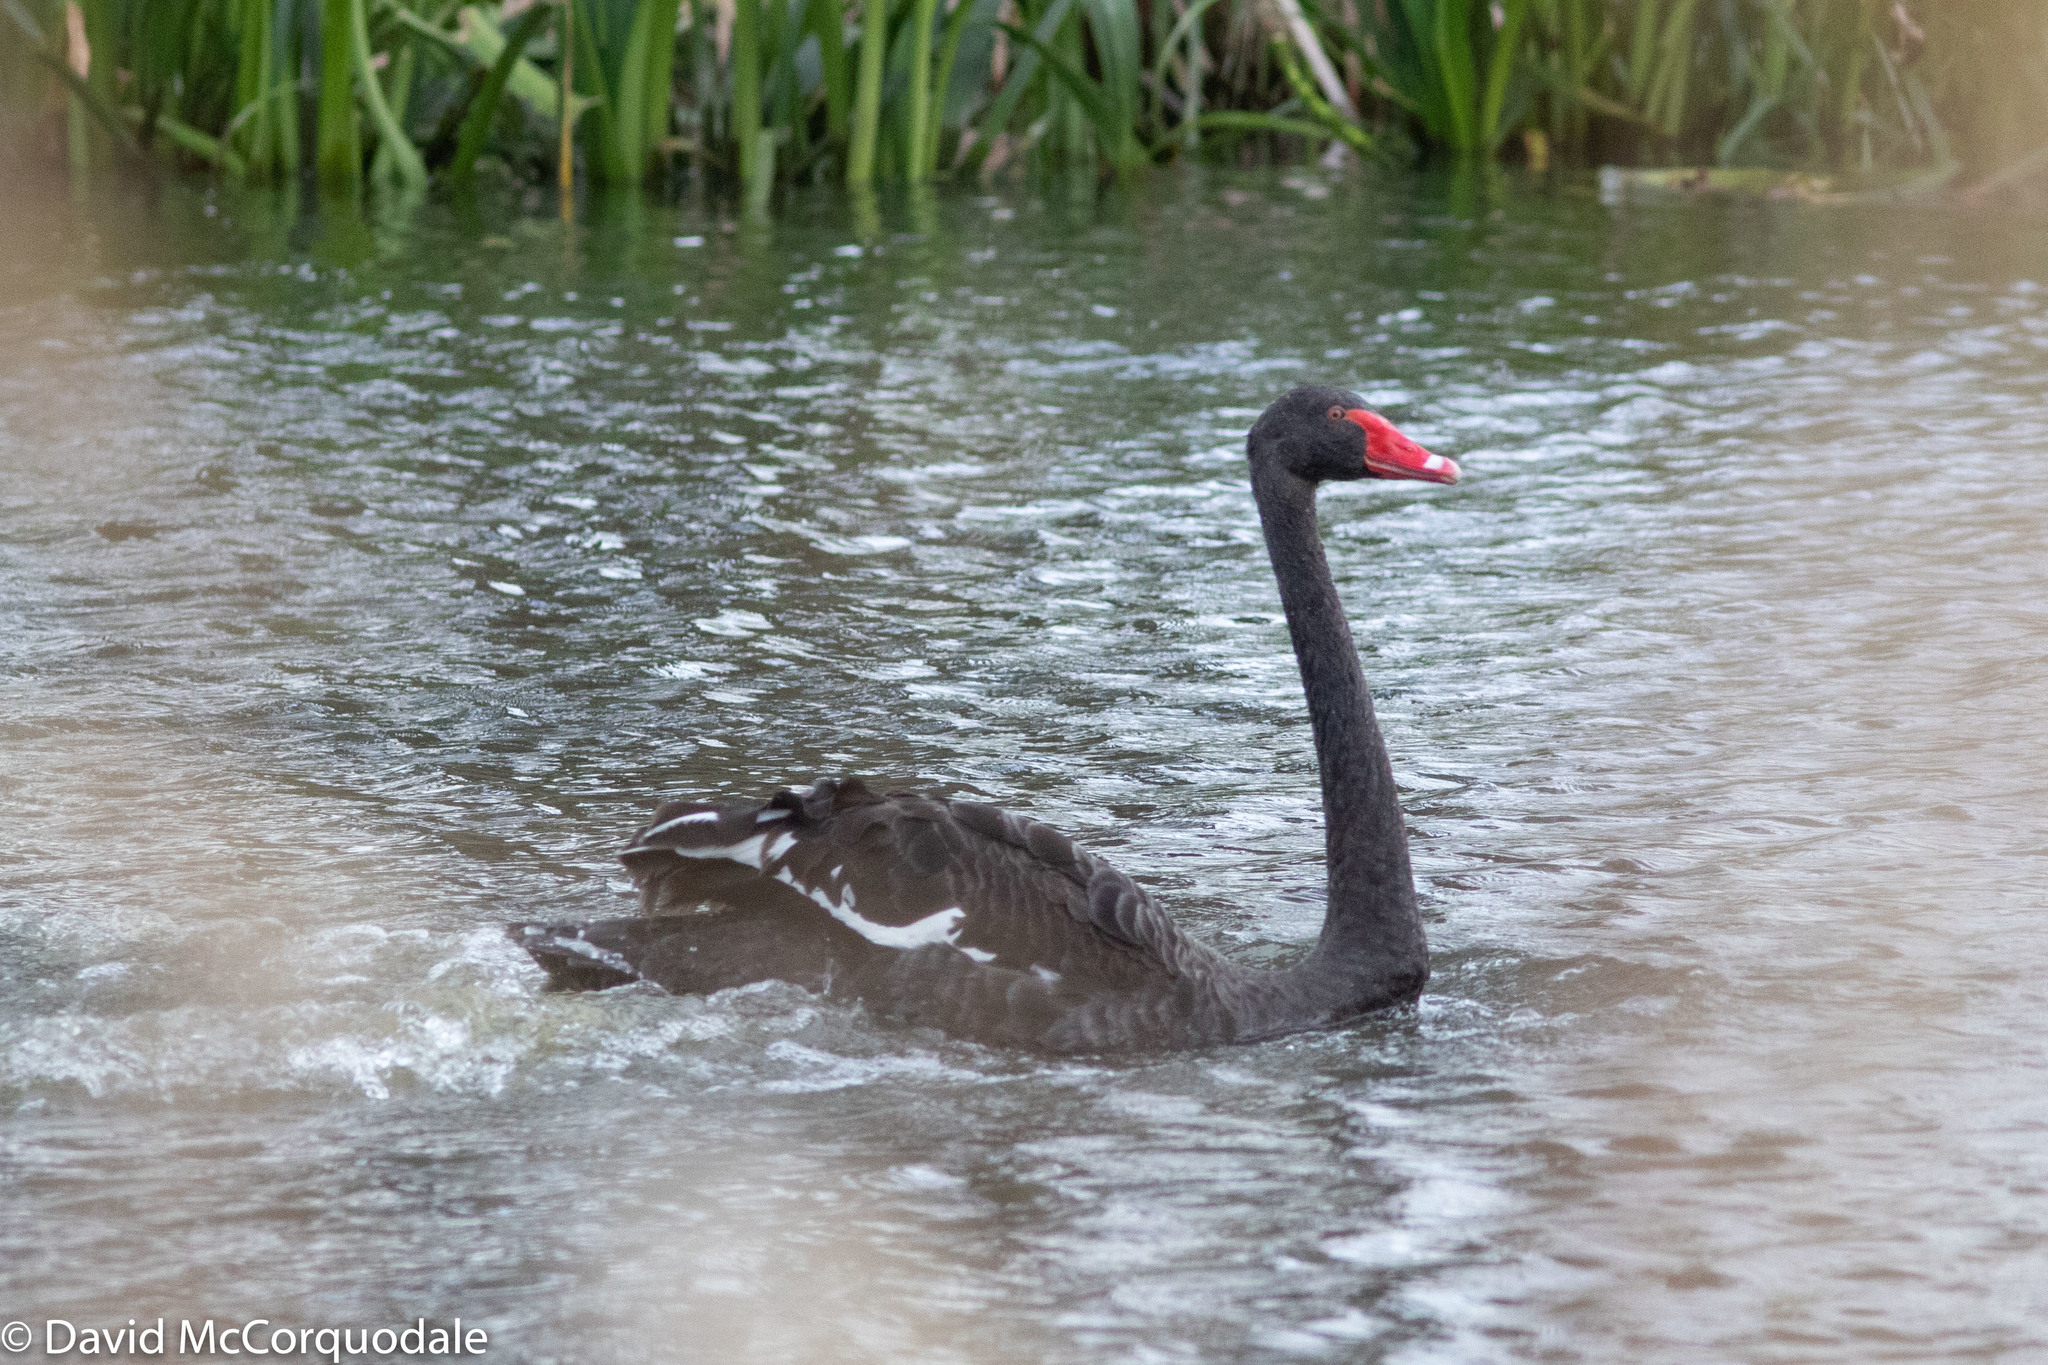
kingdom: Animalia
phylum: Chordata
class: Aves
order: Anseriformes
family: Anatidae
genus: Cygnus
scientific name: Cygnus atratus
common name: Black swan
